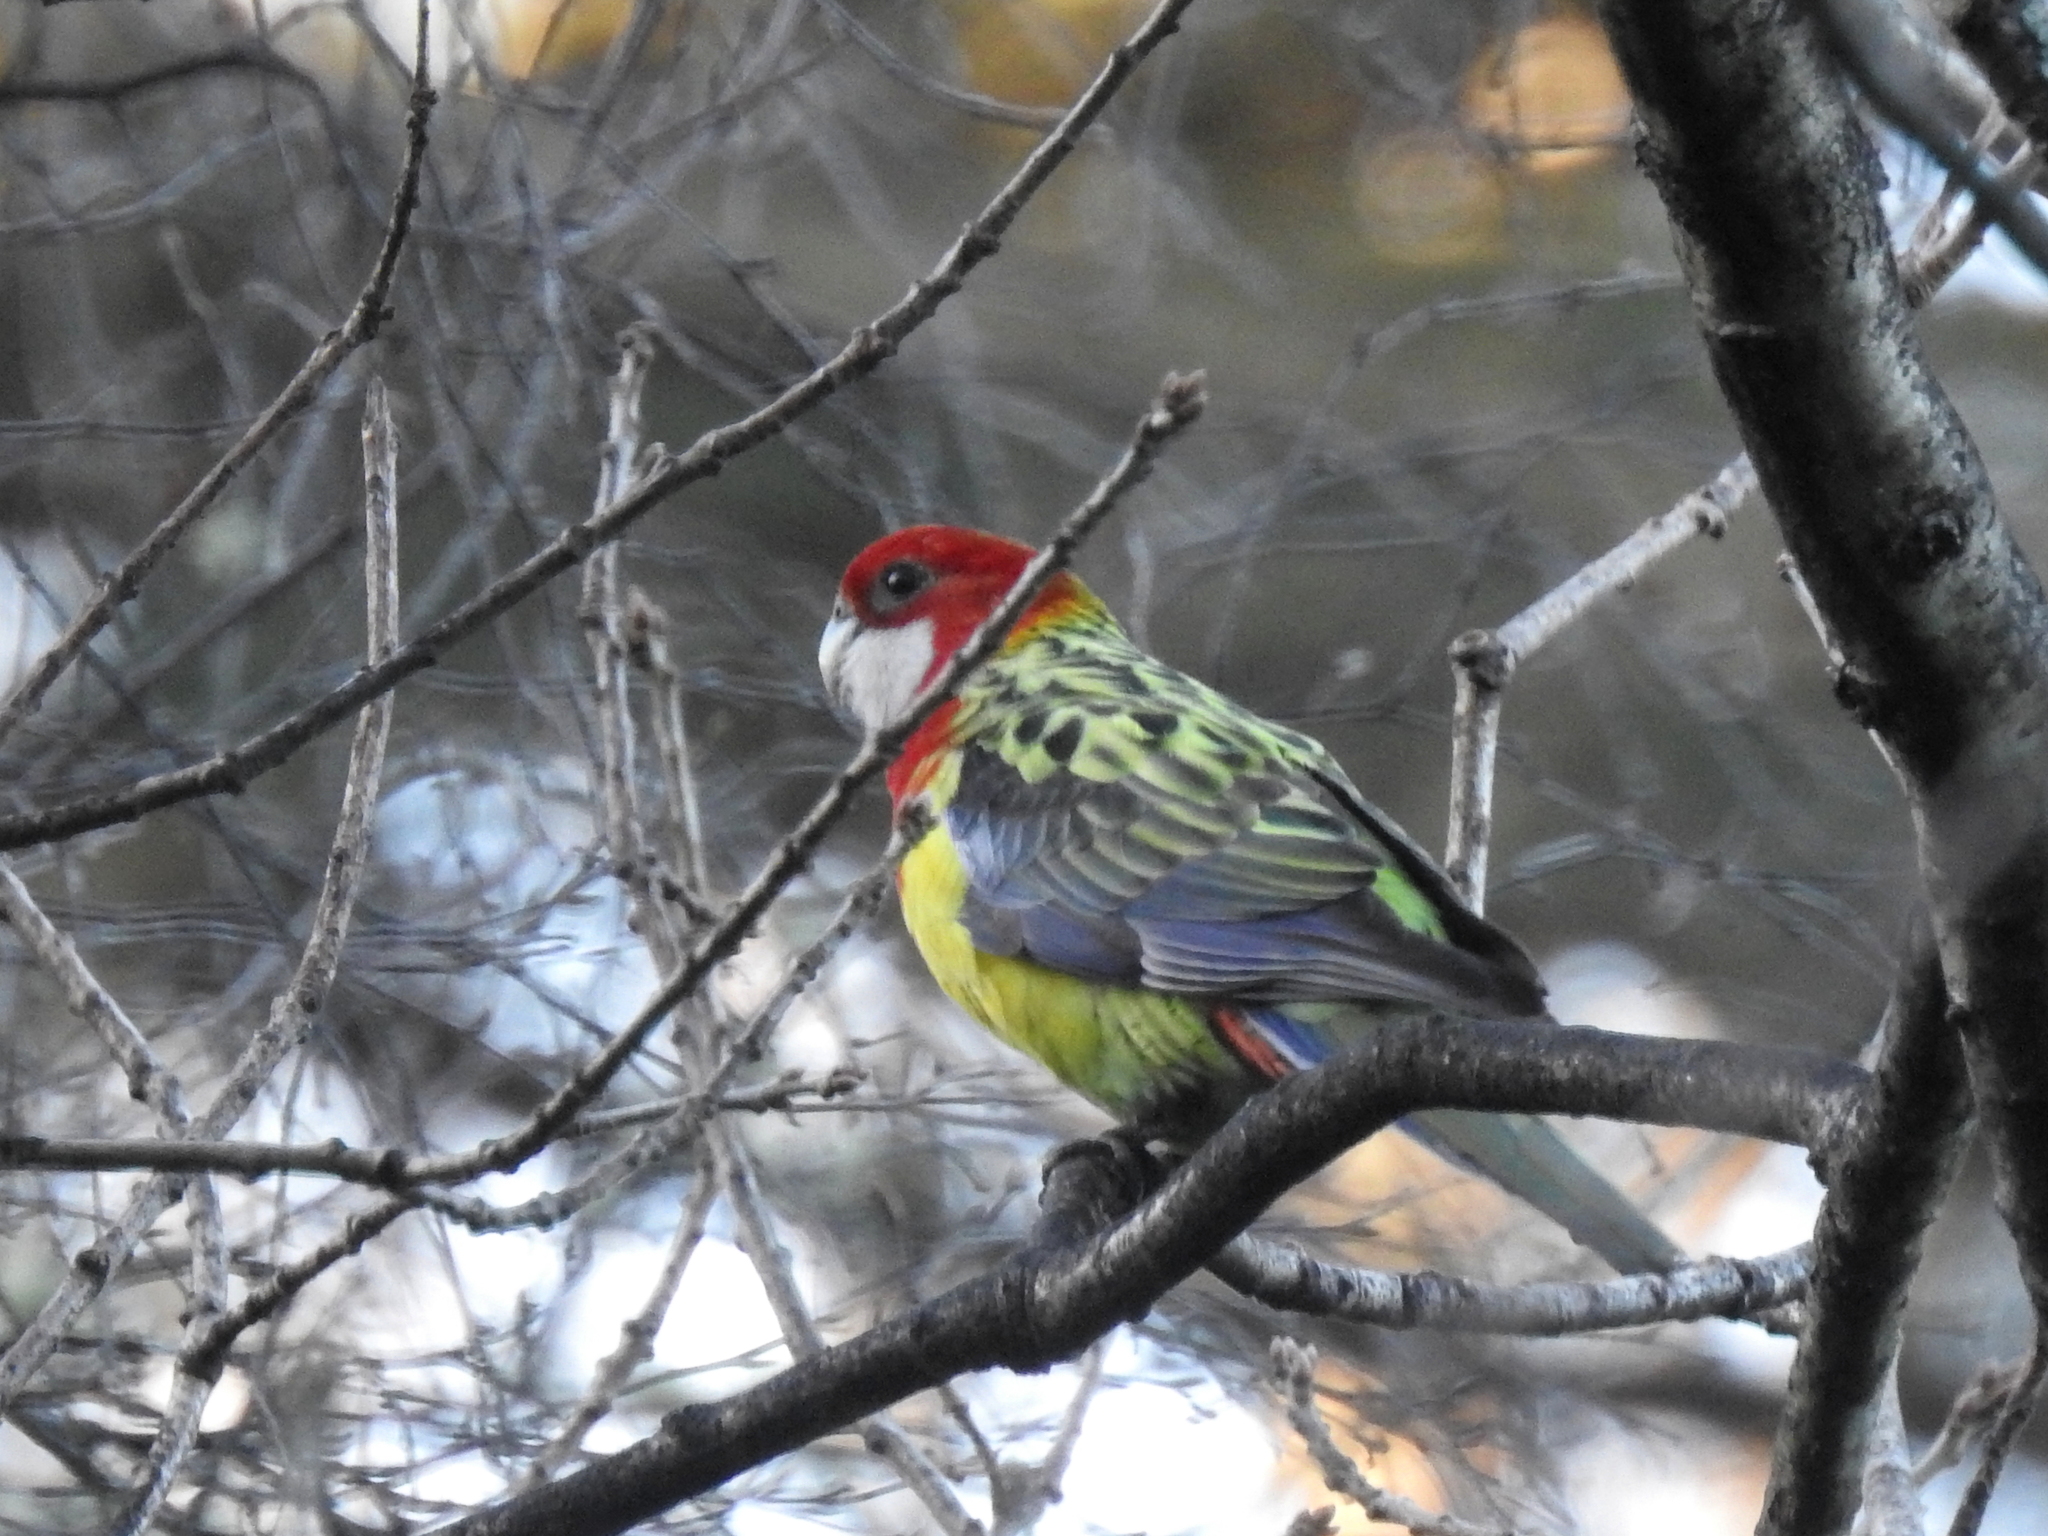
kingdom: Animalia
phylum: Chordata
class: Aves
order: Psittaciformes
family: Psittacidae
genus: Platycercus
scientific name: Platycercus eximius
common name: Eastern rosella
